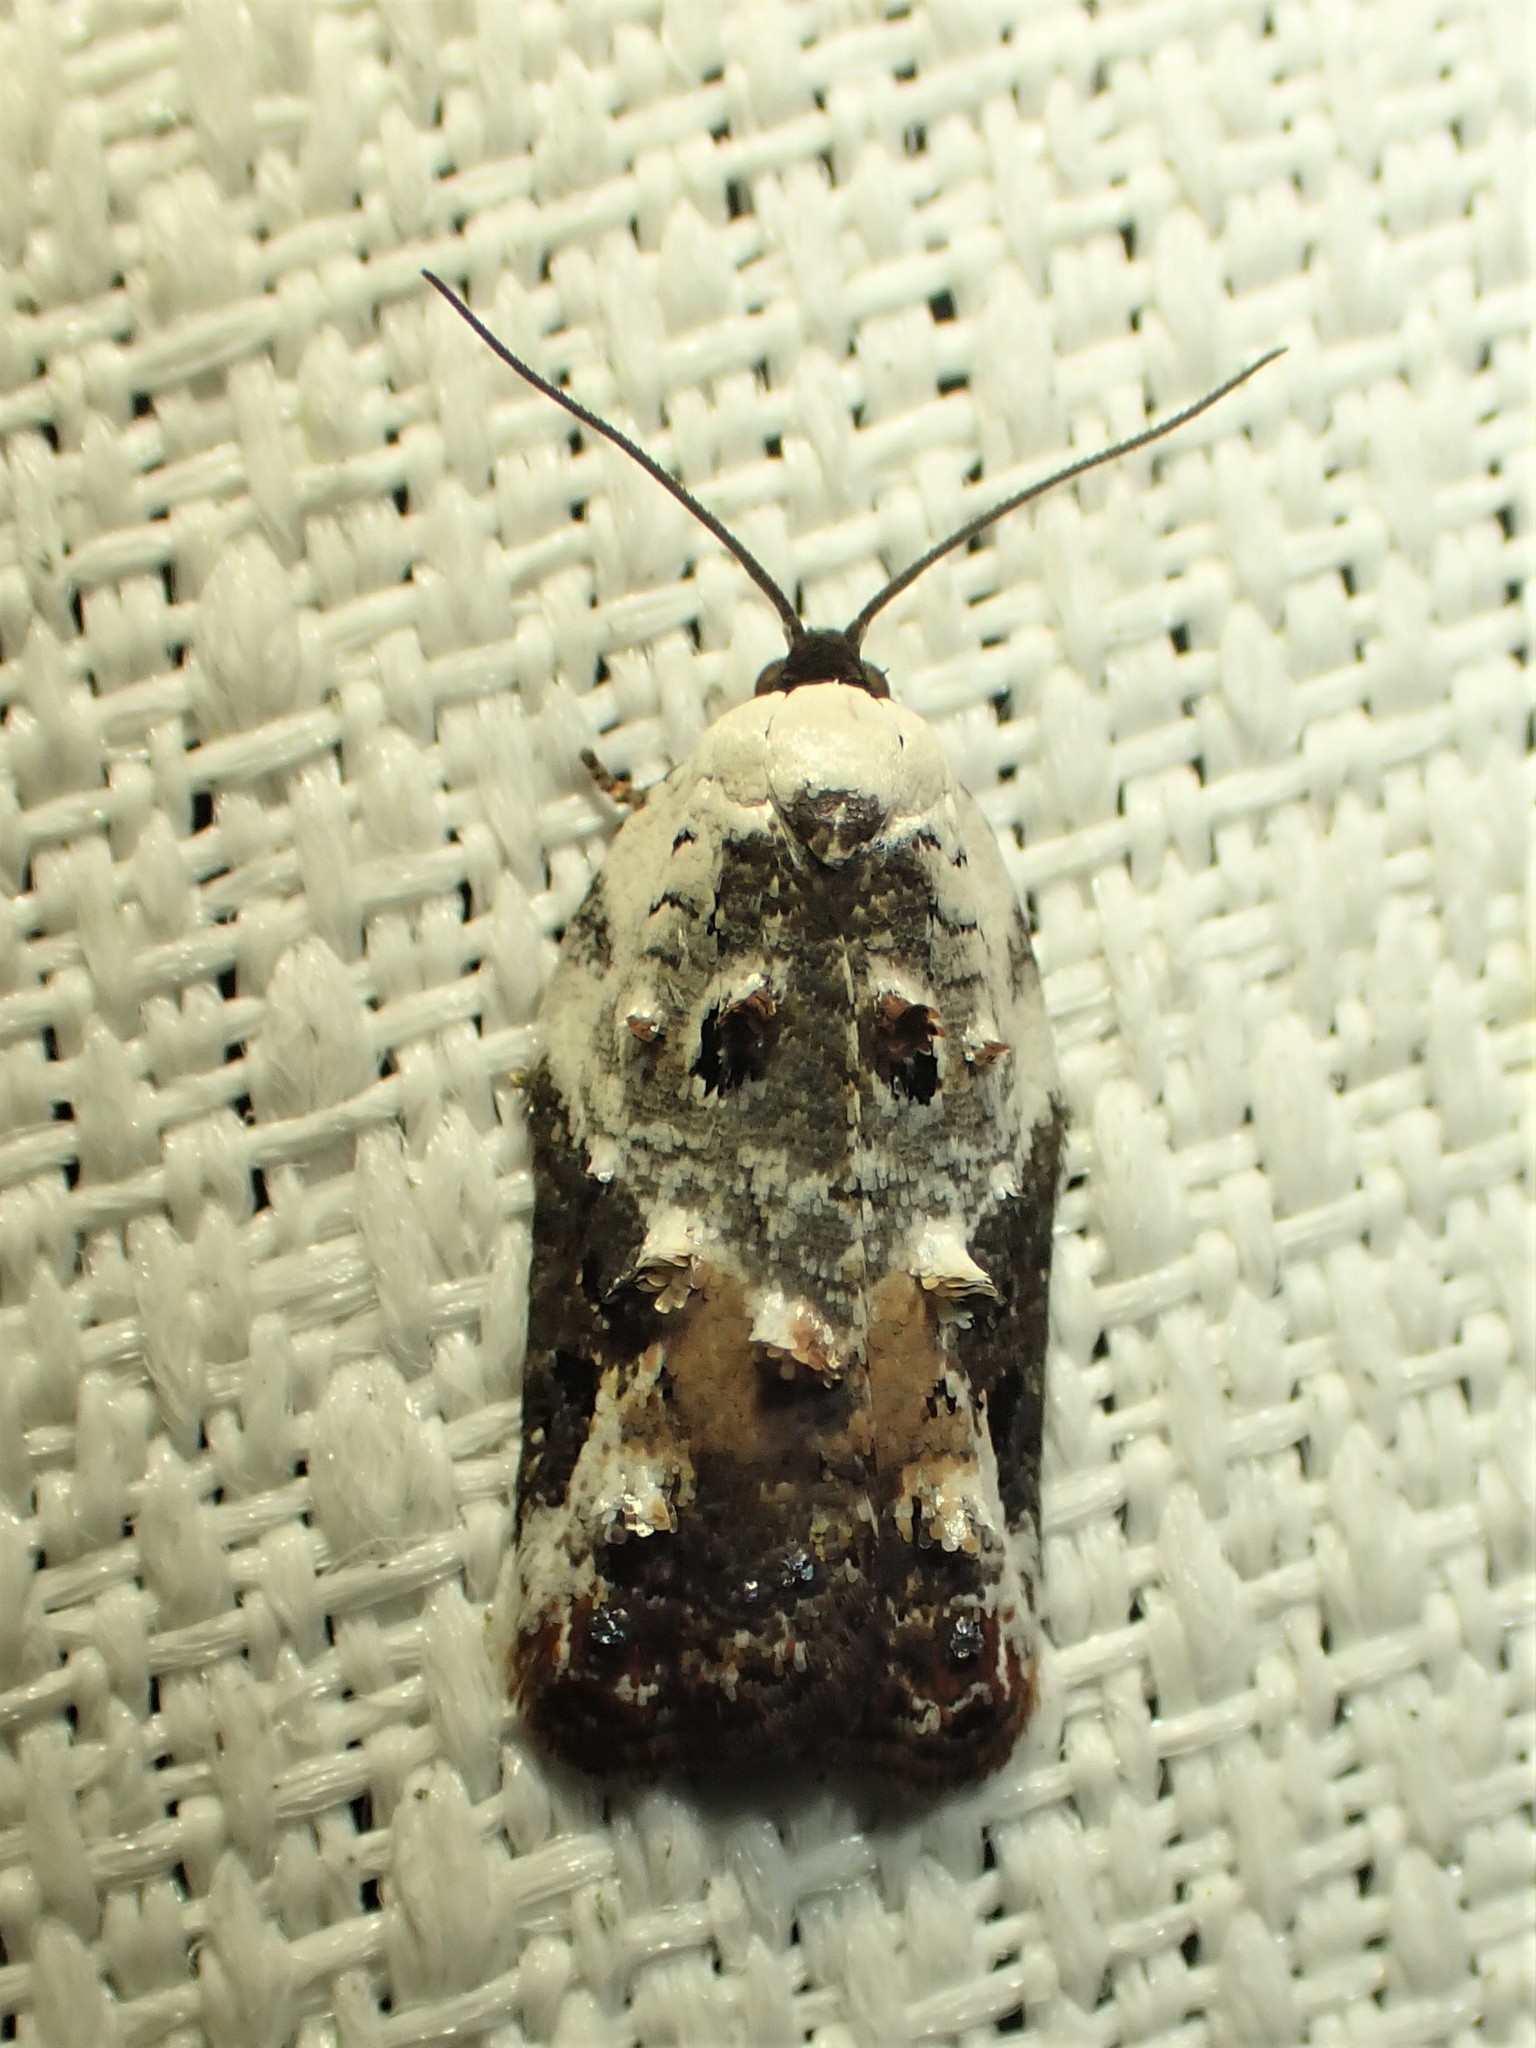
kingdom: Animalia
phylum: Arthropoda
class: Insecta
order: Lepidoptera
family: Tortricidae
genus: Acleris
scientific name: Acleris nivisellana
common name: Snowy-shouldered acleris moth
